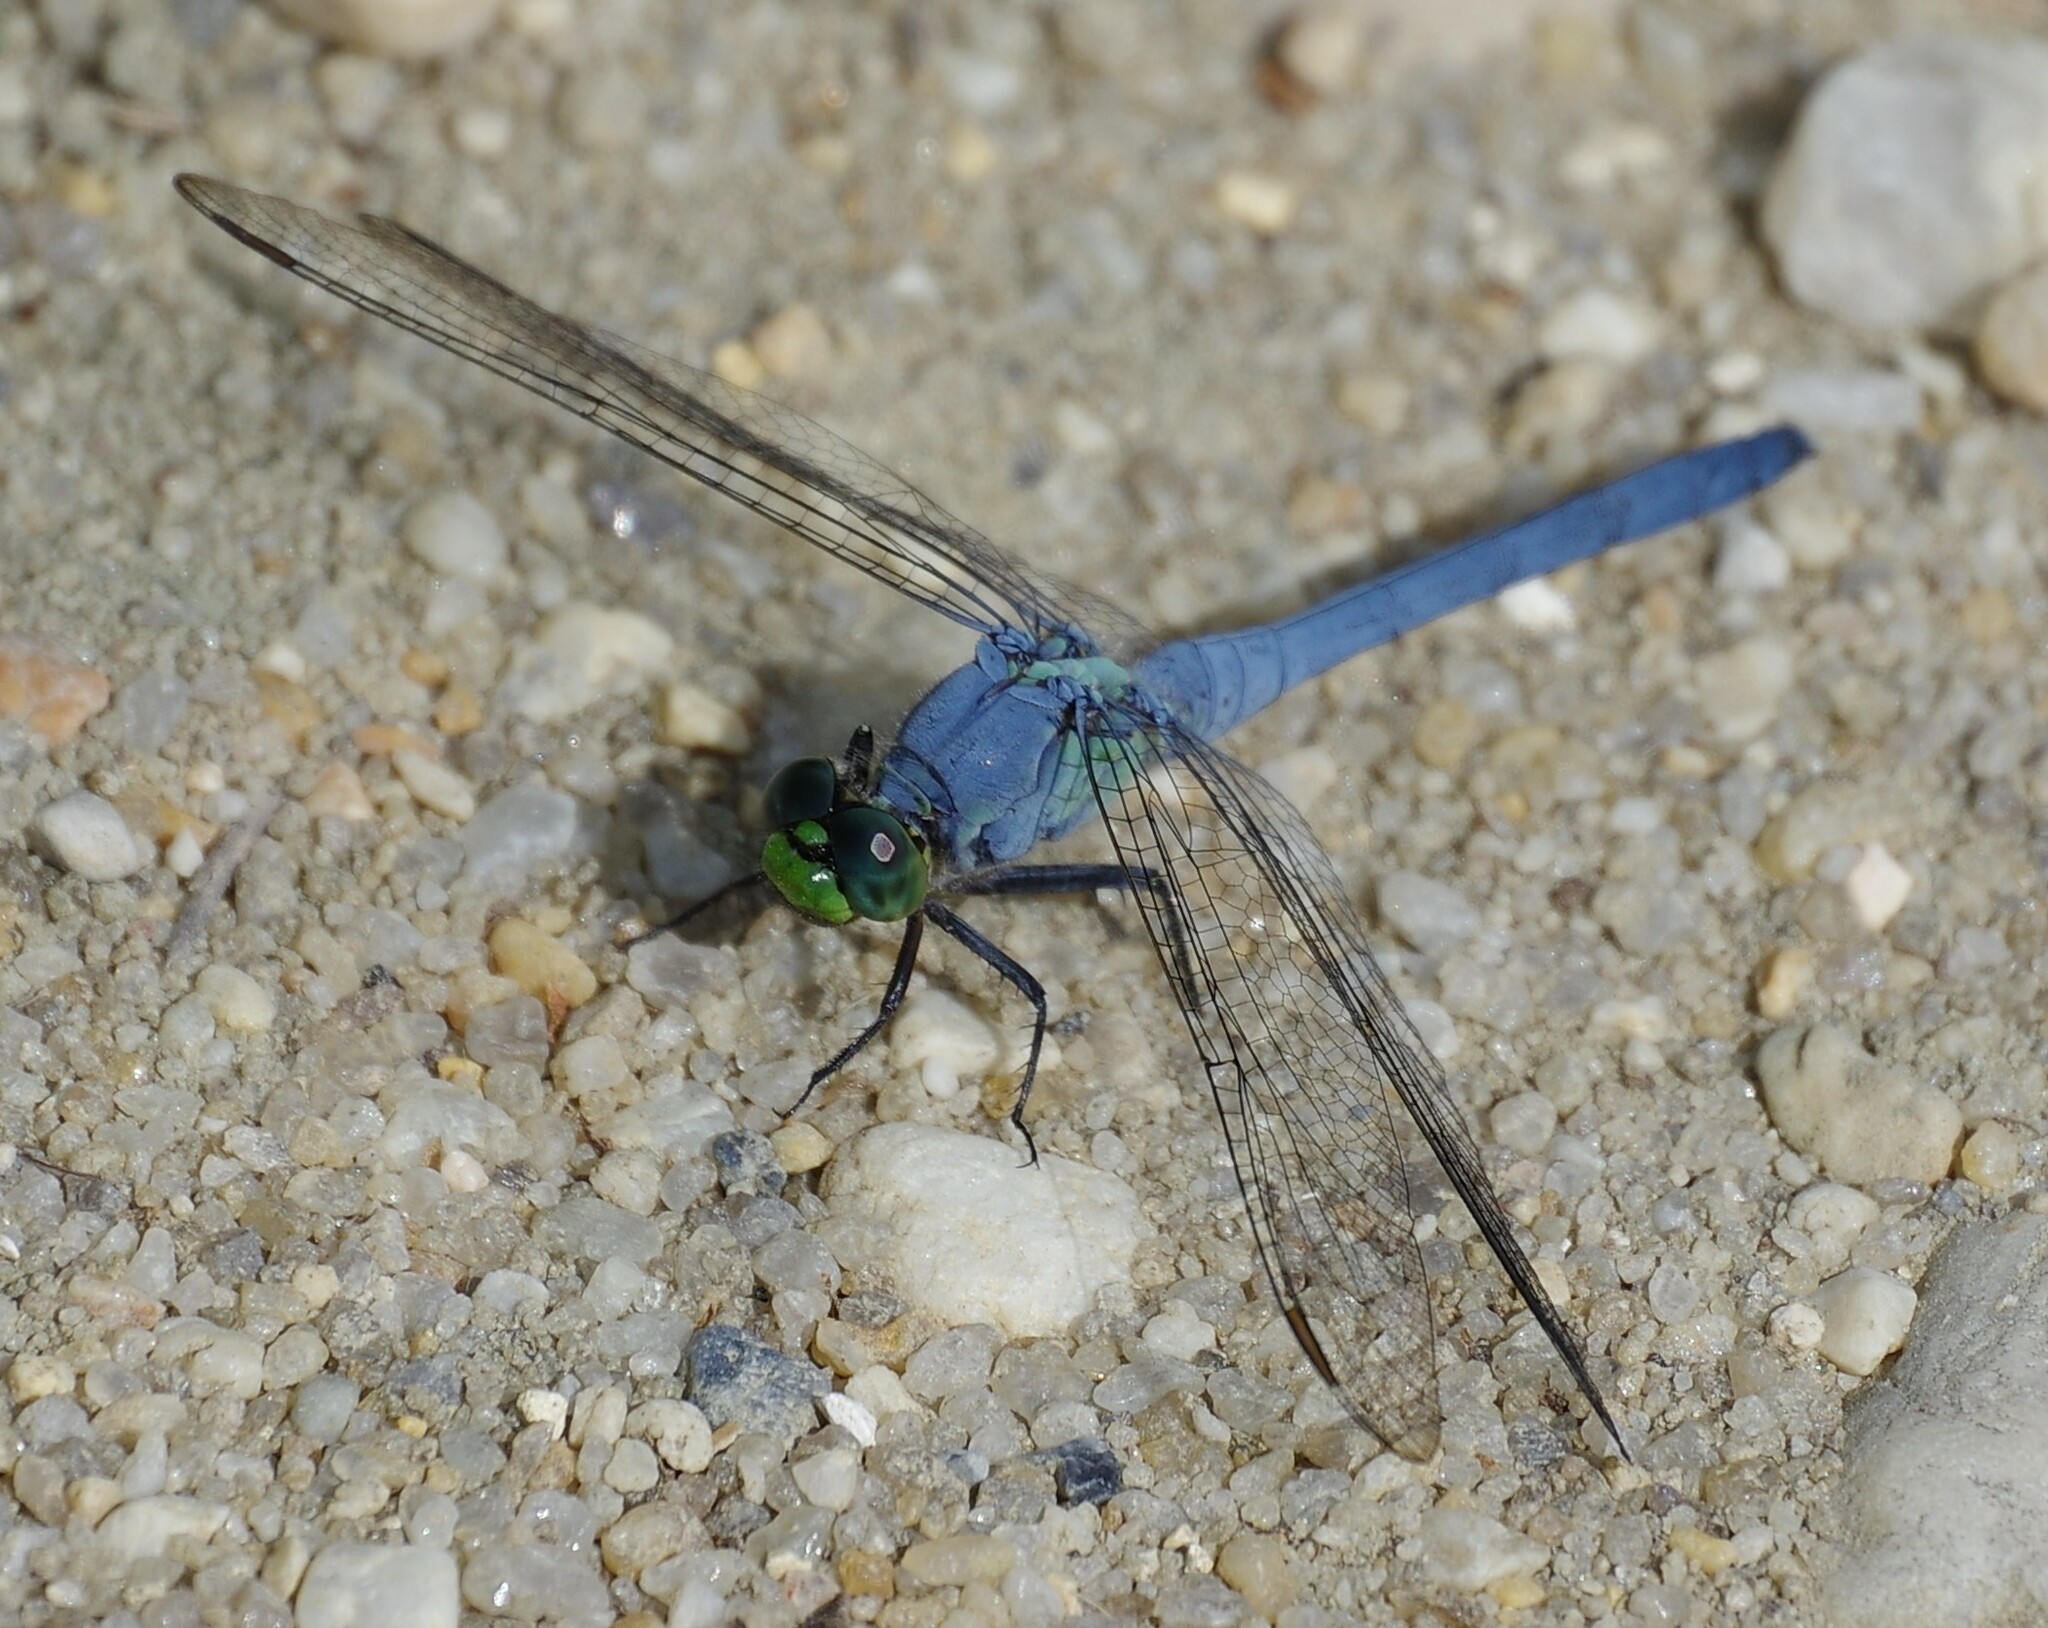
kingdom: Animalia
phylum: Arthropoda
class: Insecta
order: Odonata
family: Libellulidae
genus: Erythemis
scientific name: Erythemis simplicicollis
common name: Eastern pondhawk
